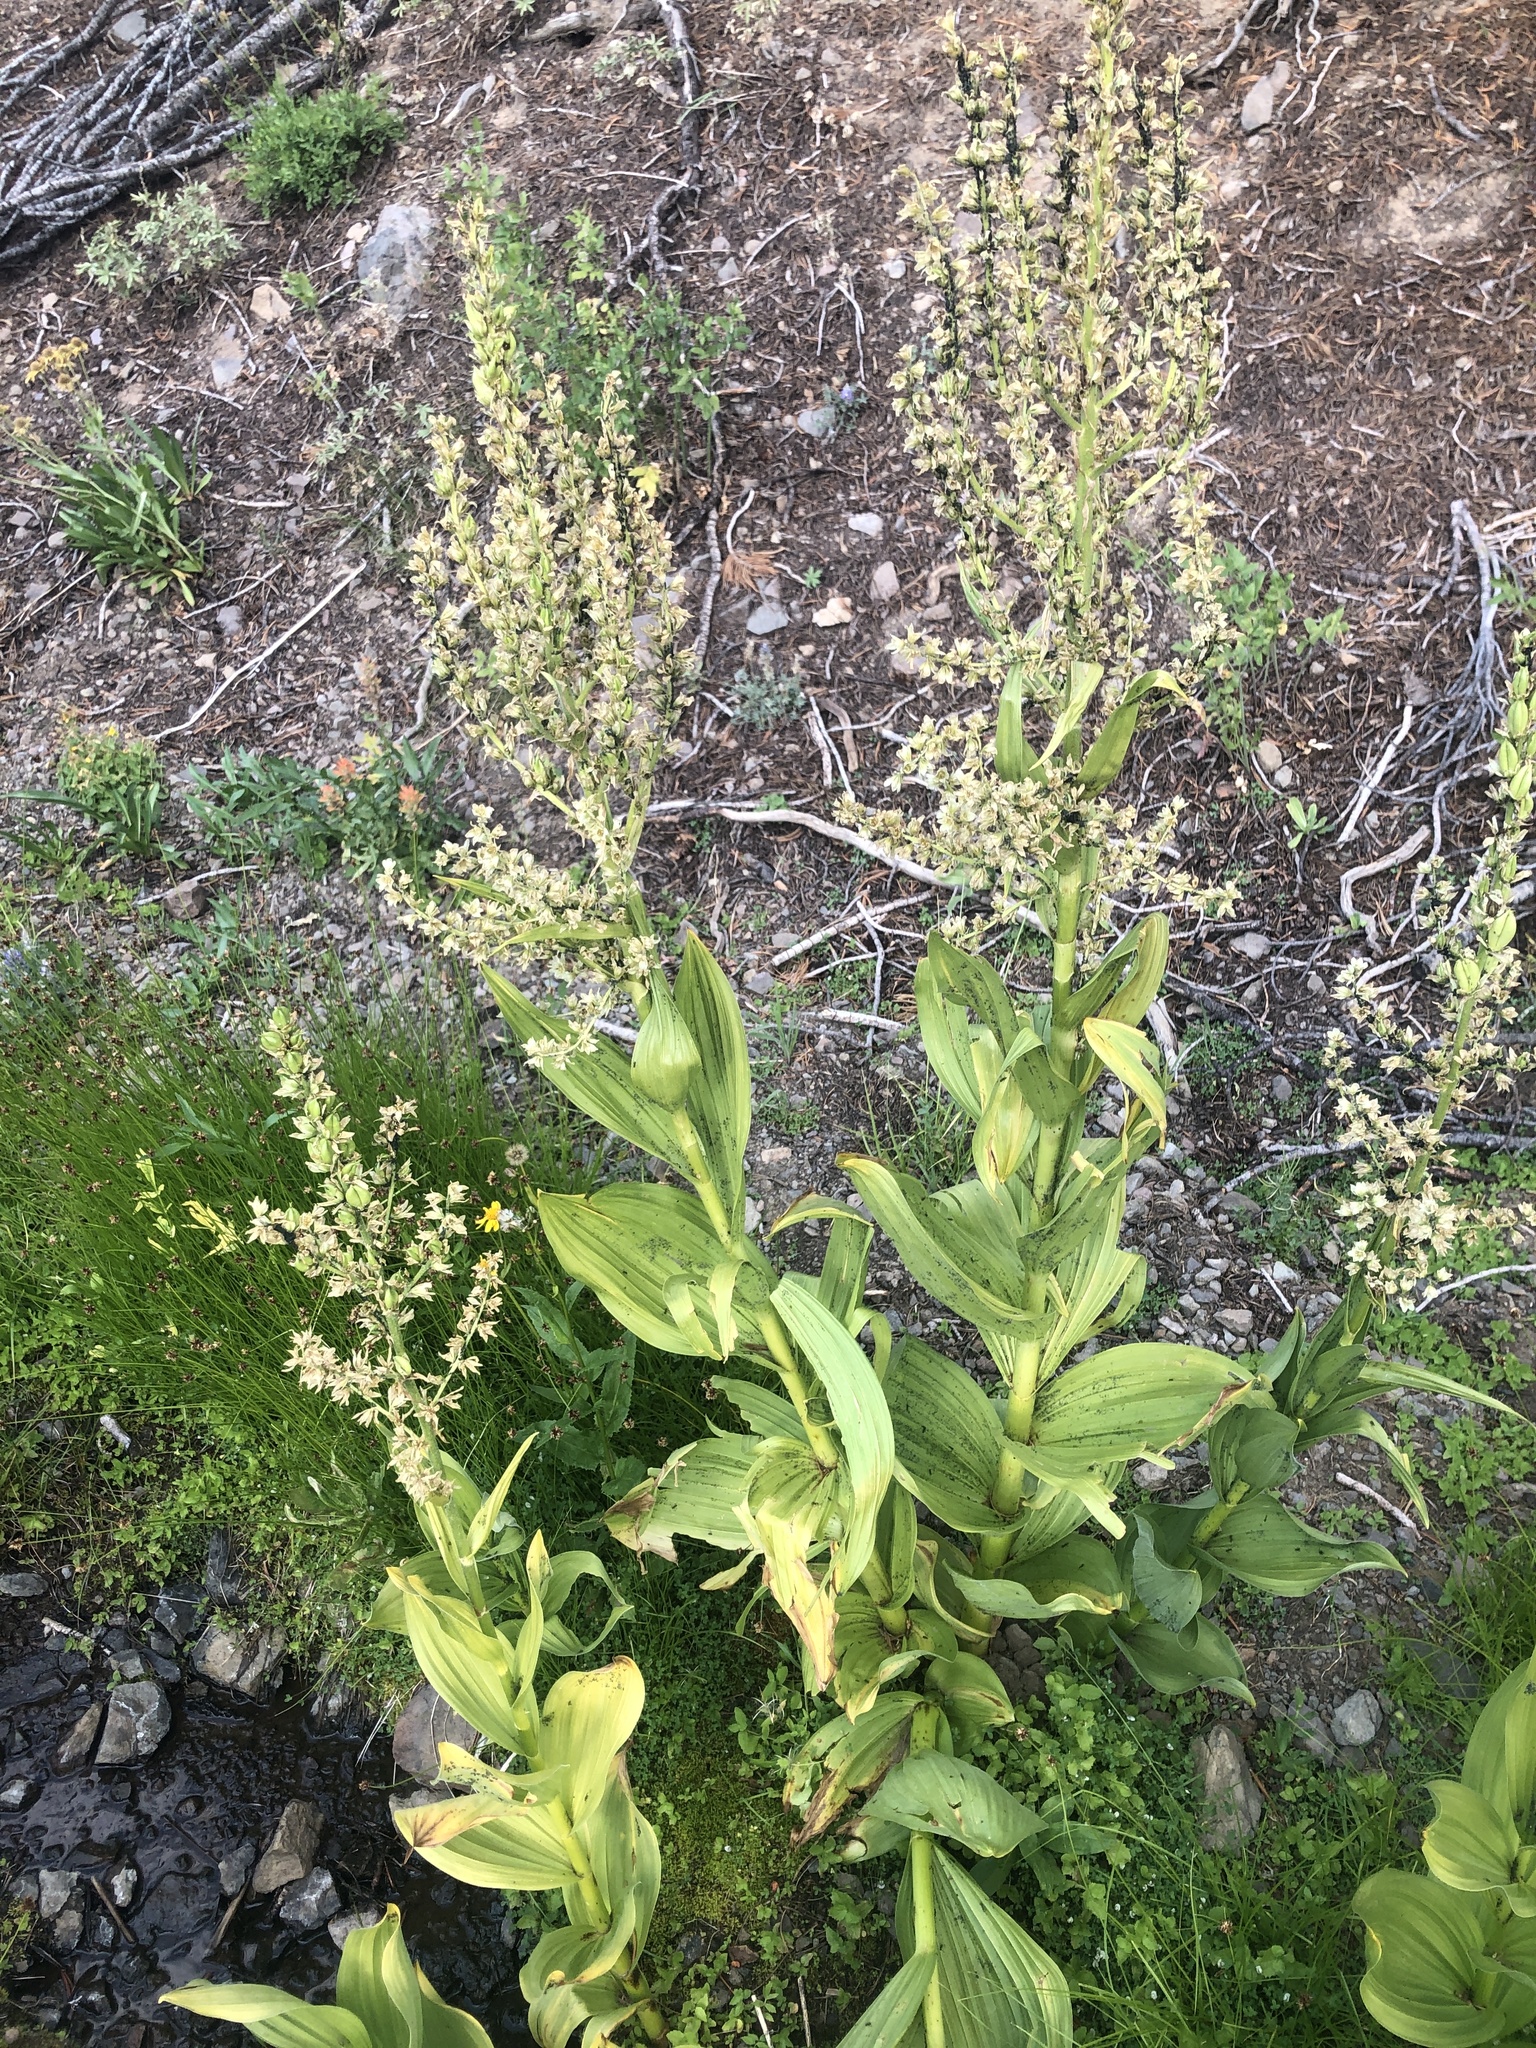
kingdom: Plantae
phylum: Tracheophyta
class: Liliopsida
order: Liliales
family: Melanthiaceae
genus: Veratrum
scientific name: Veratrum californicum
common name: California veratrum
